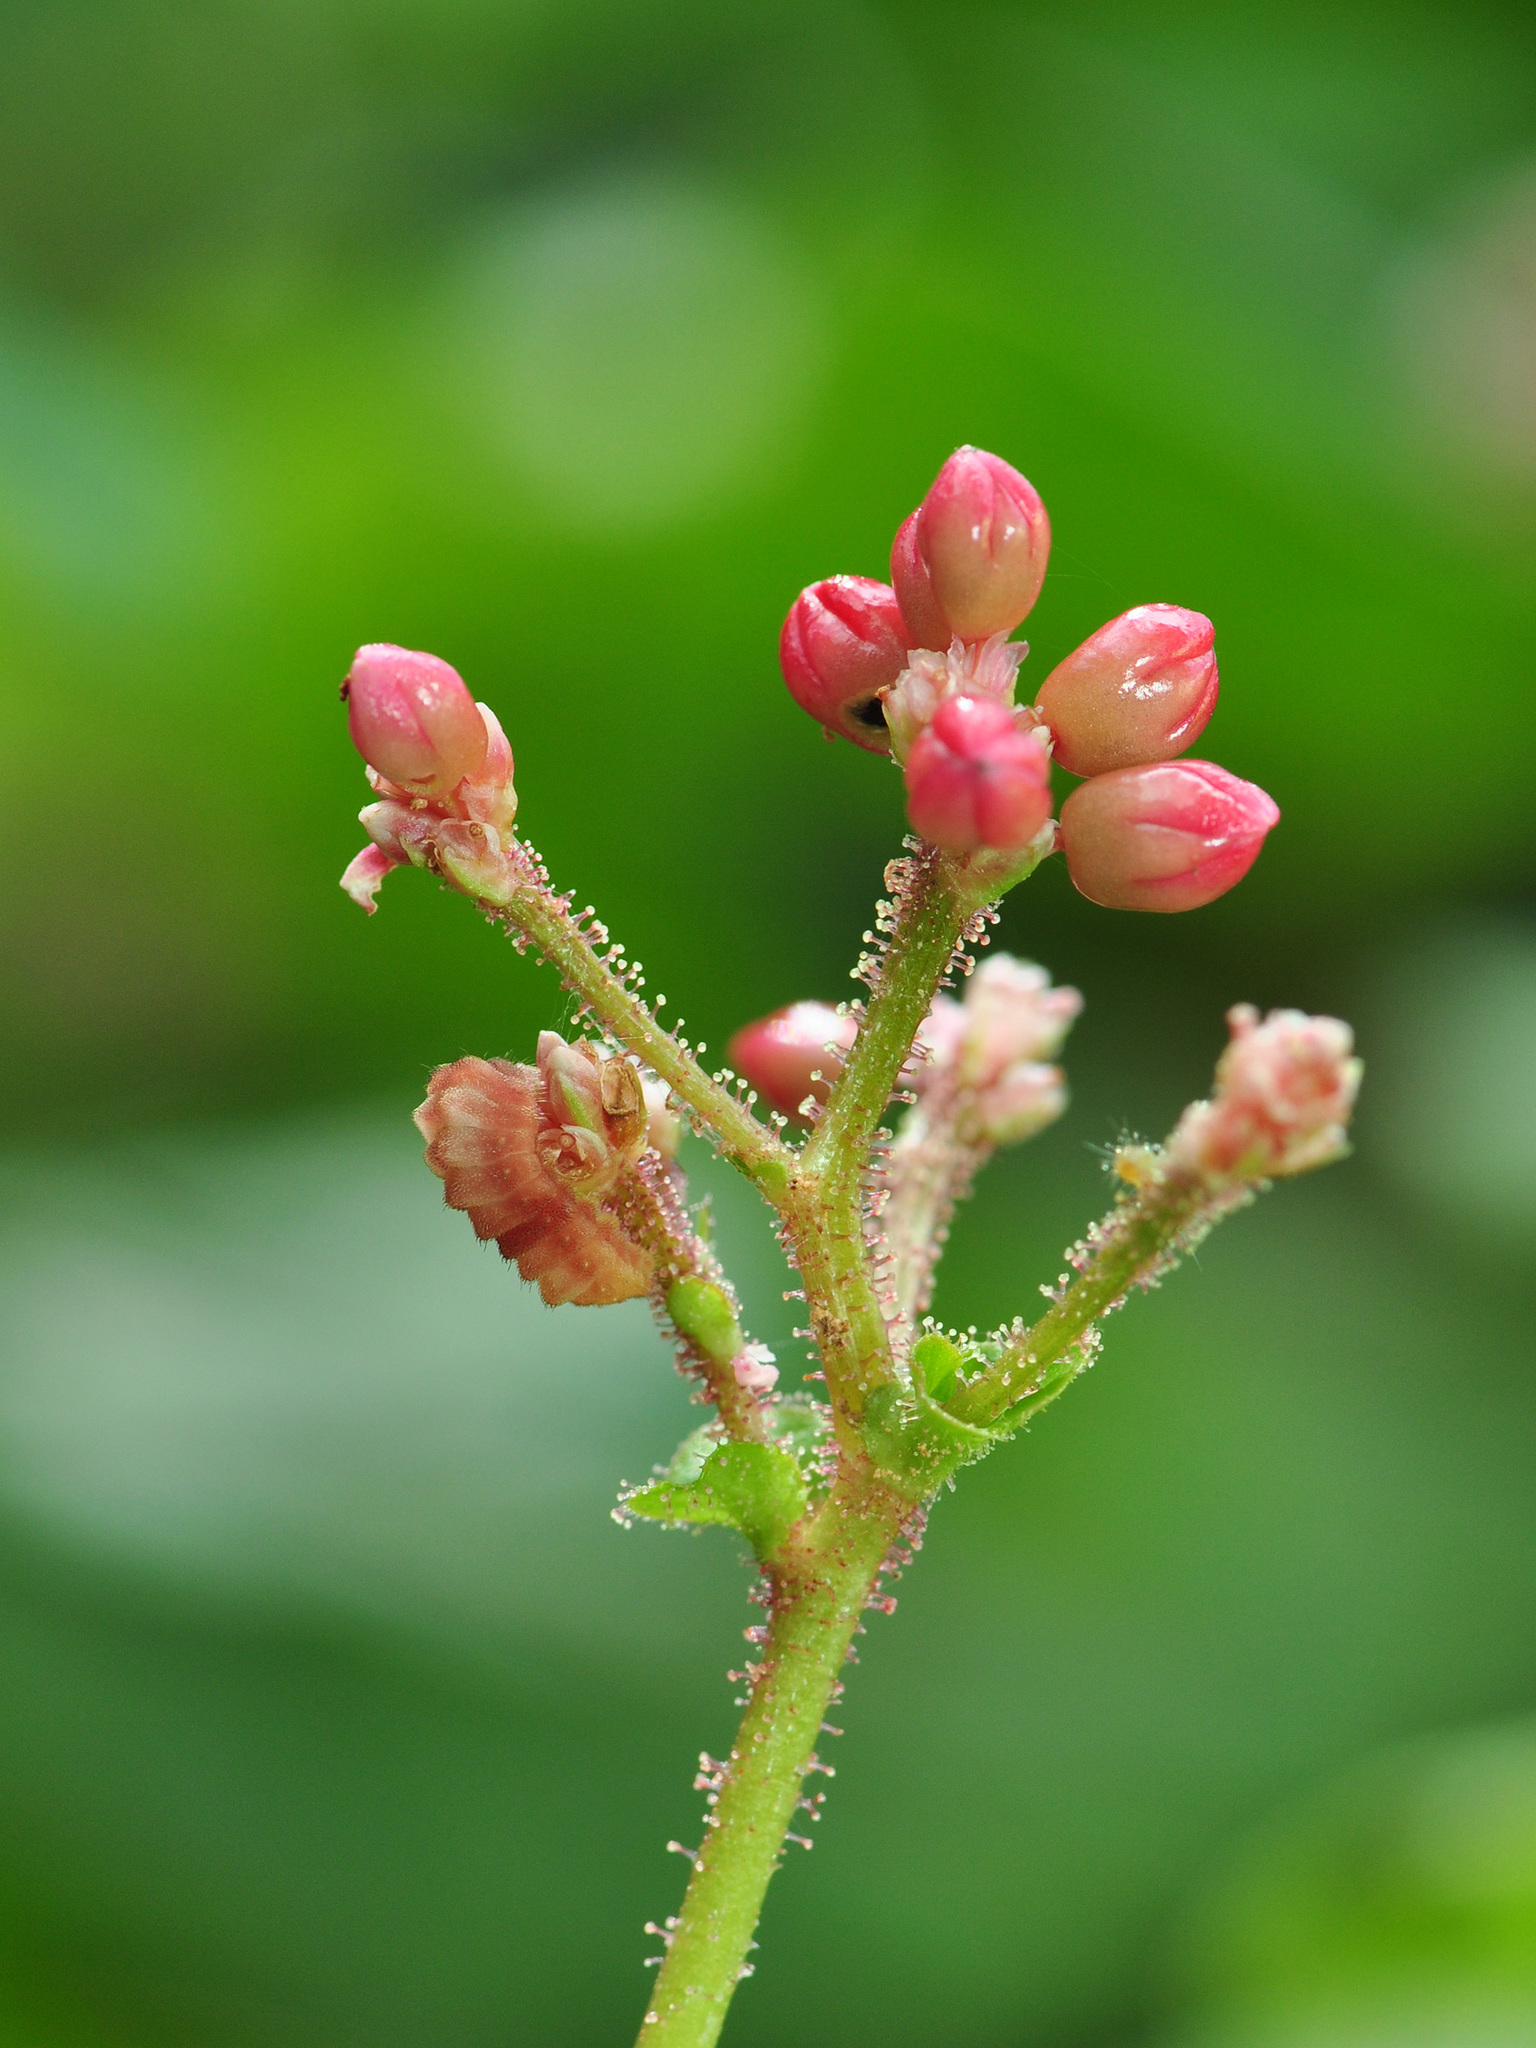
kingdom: Animalia
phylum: Arthropoda
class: Insecta
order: Lepidoptera
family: Lycaenidae
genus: Heliophorus
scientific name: Heliophorus epicles
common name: Purple sapphire
